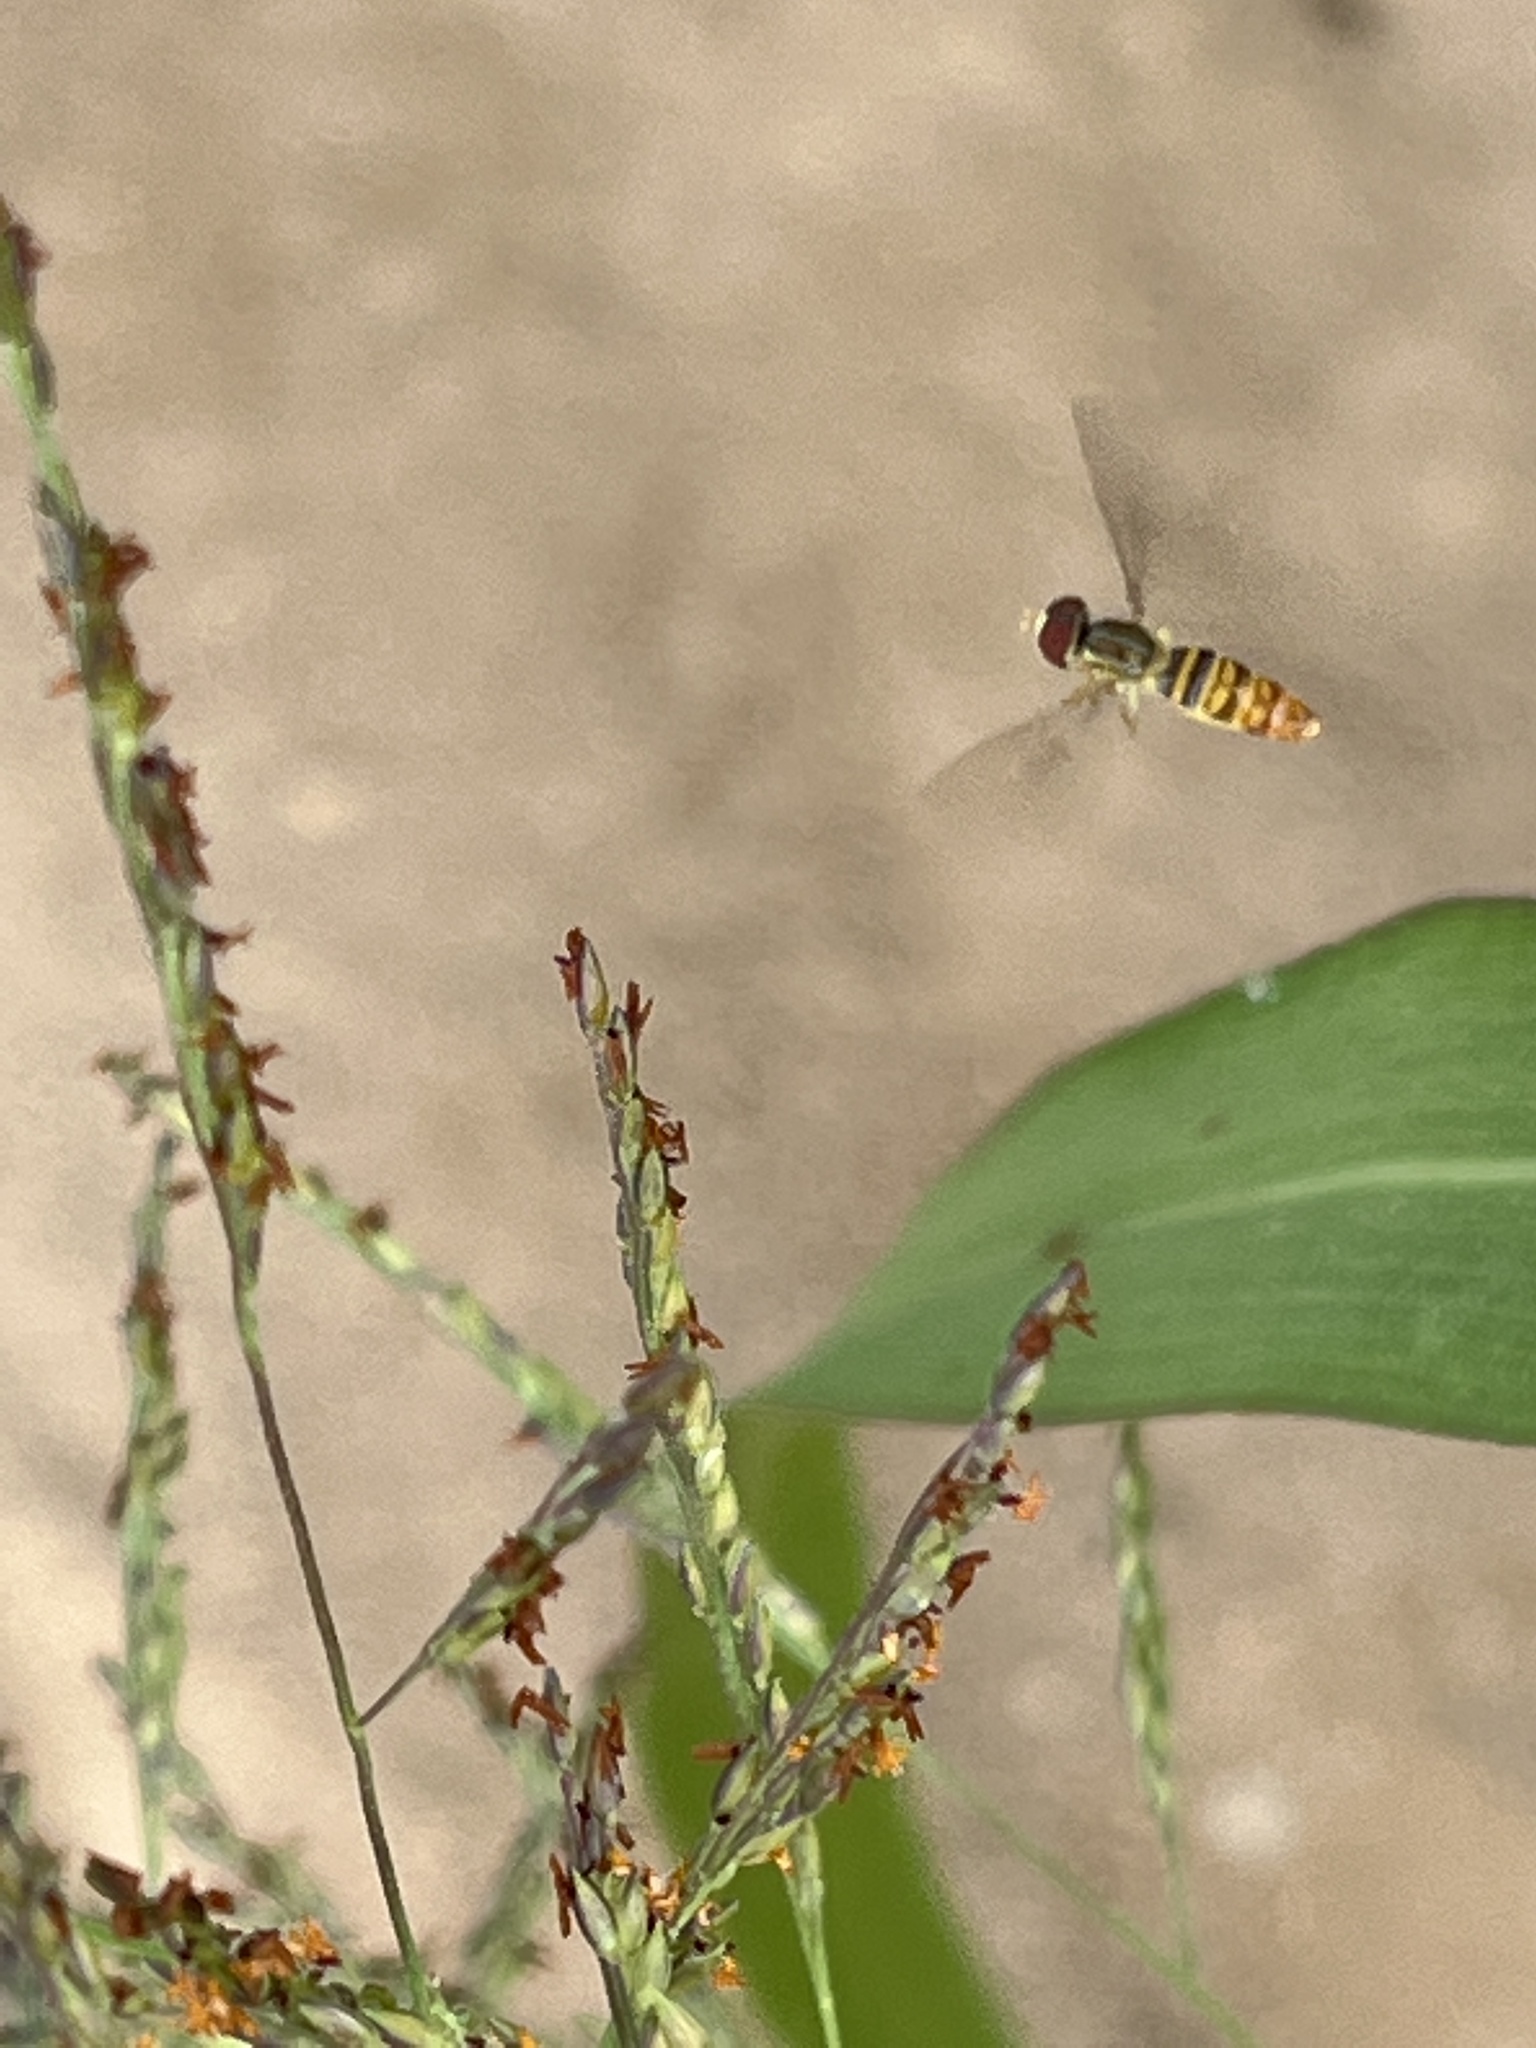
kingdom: Animalia
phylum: Arthropoda
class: Insecta
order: Diptera
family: Syrphidae
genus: Toxomerus
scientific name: Toxomerus politus
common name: Maize calligrapher
